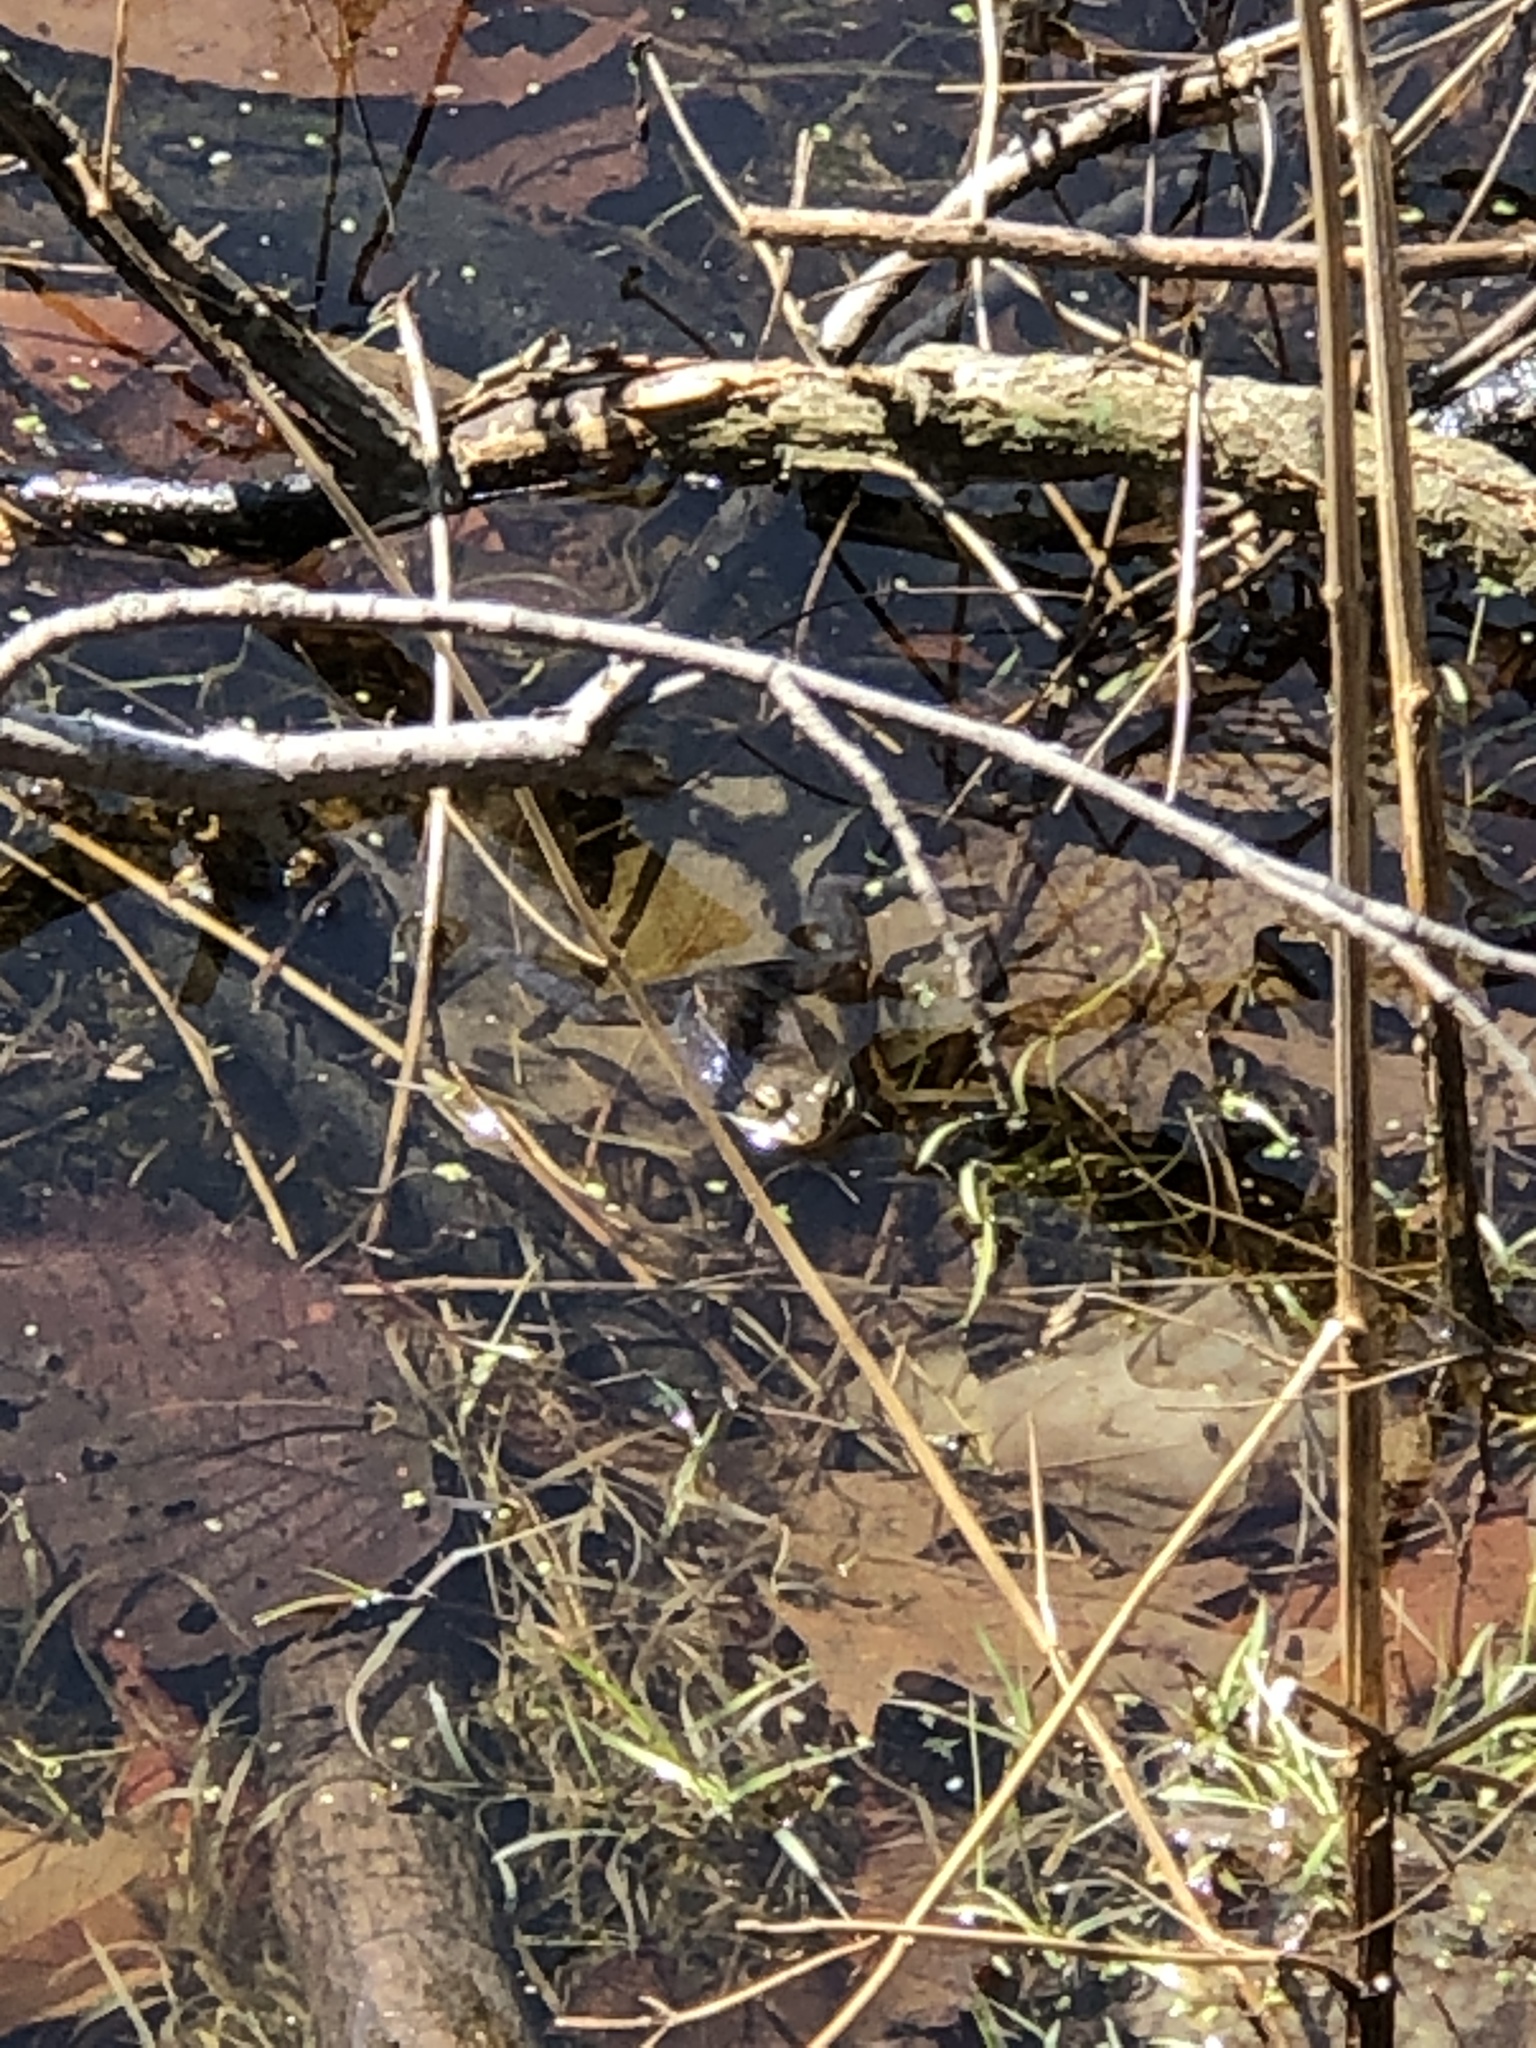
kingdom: Animalia
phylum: Chordata
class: Amphibia
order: Anura
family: Ranidae
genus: Lithobates
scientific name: Lithobates sylvaticus
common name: Wood frog
